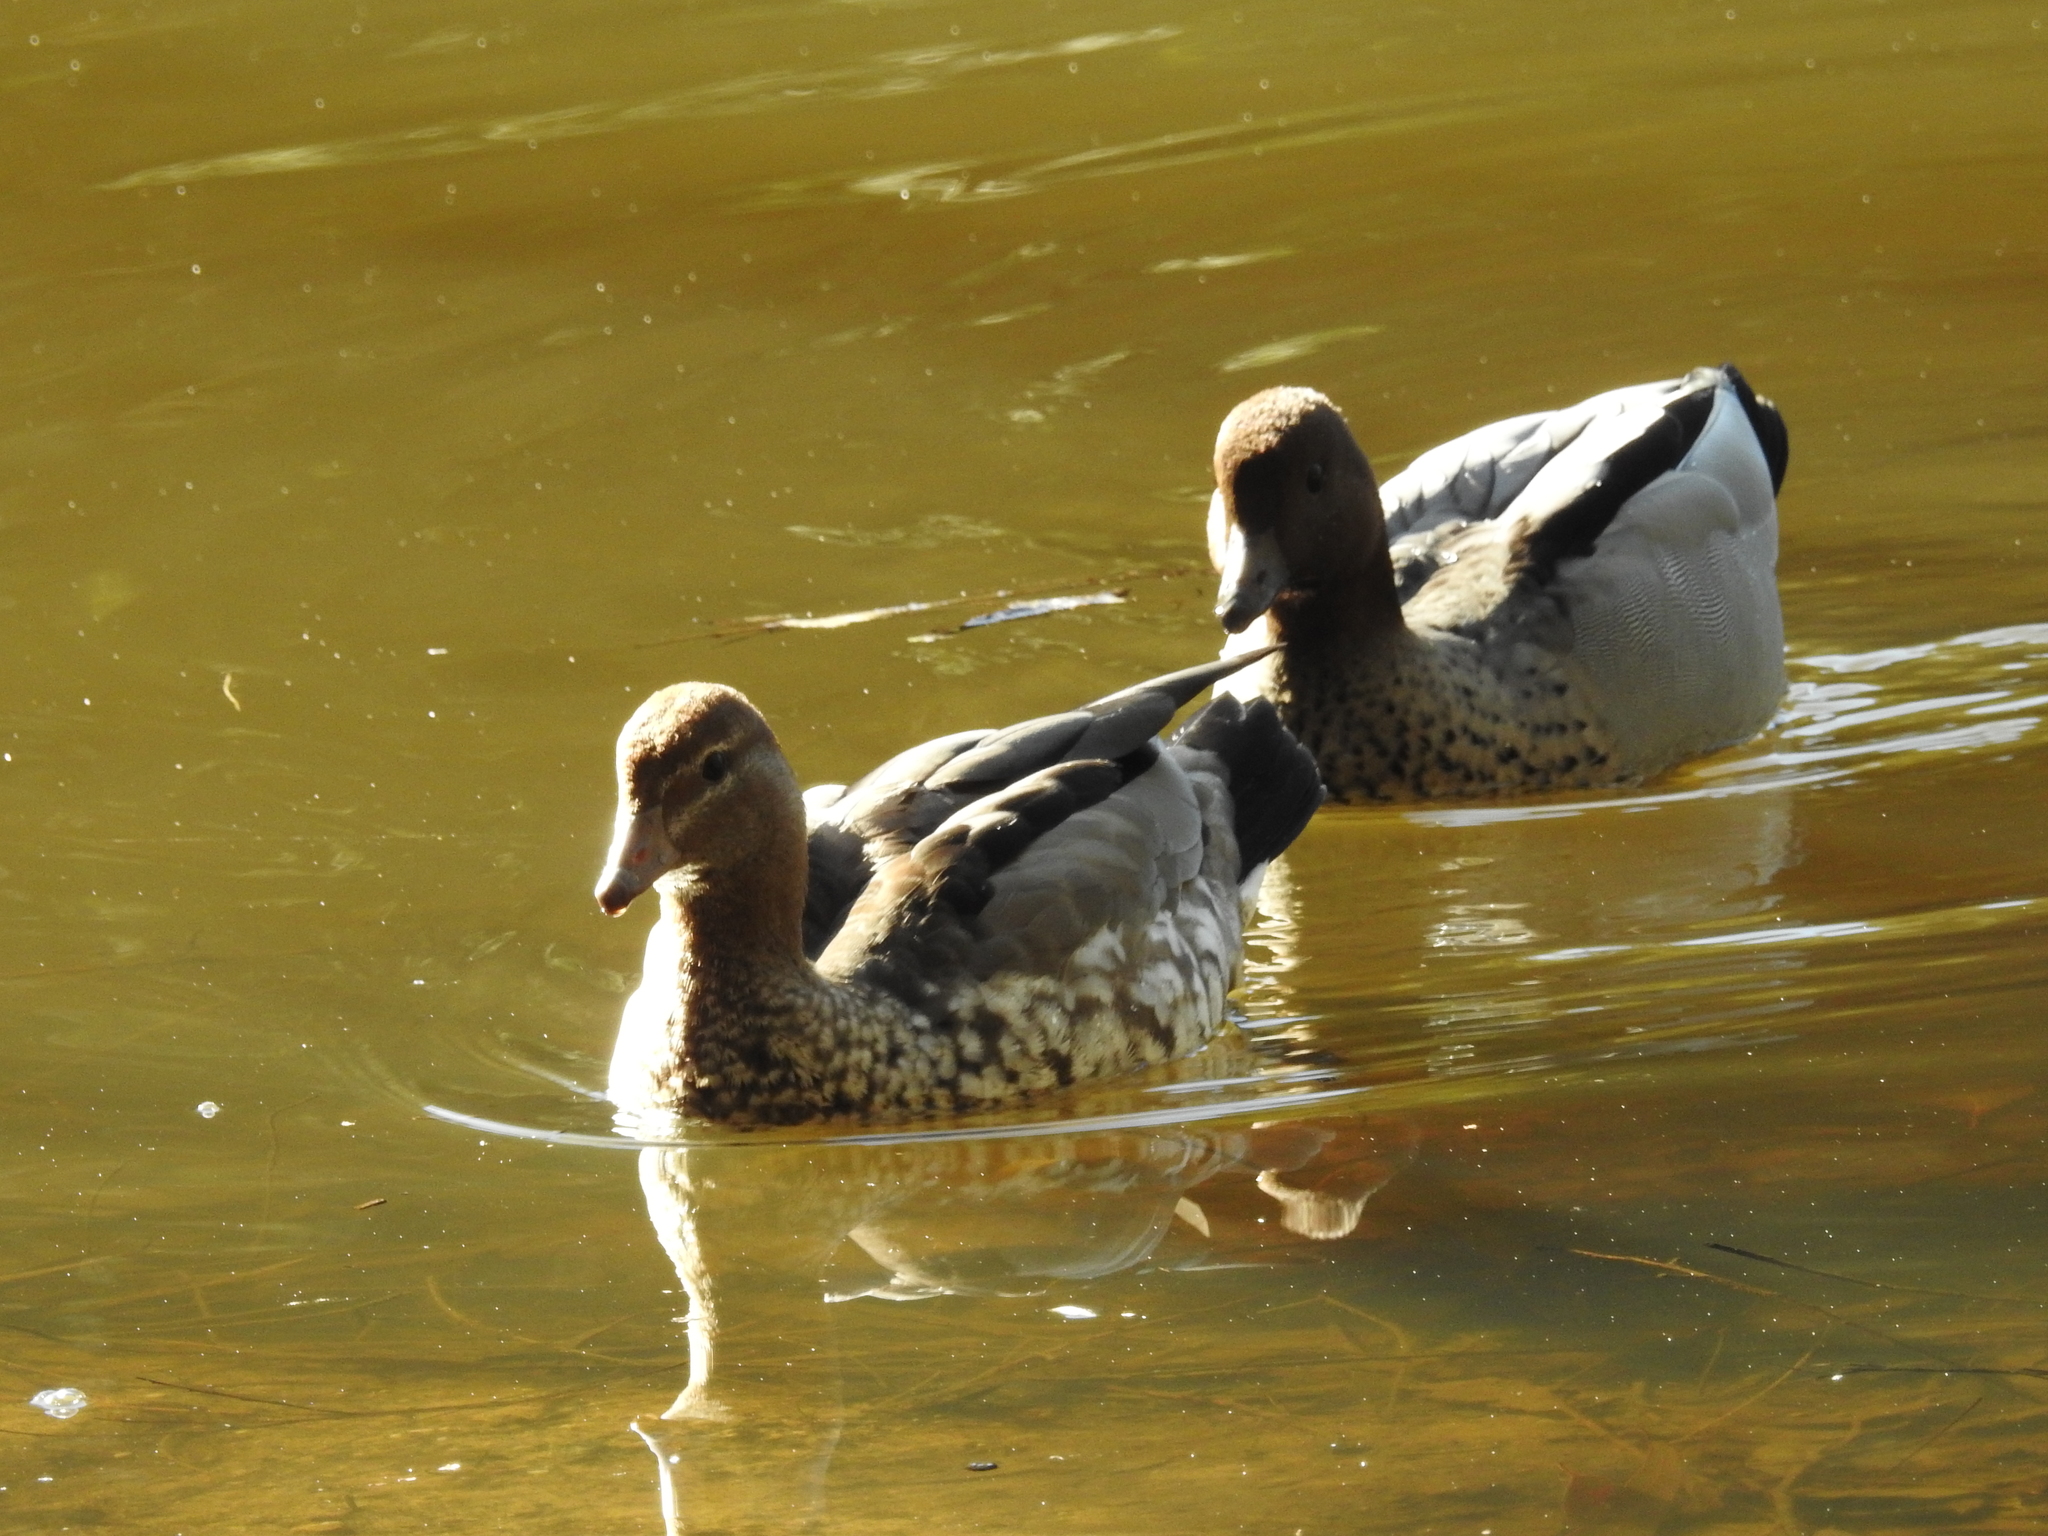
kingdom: Animalia
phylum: Chordata
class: Aves
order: Anseriformes
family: Anatidae
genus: Chenonetta
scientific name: Chenonetta jubata
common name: Maned duck
